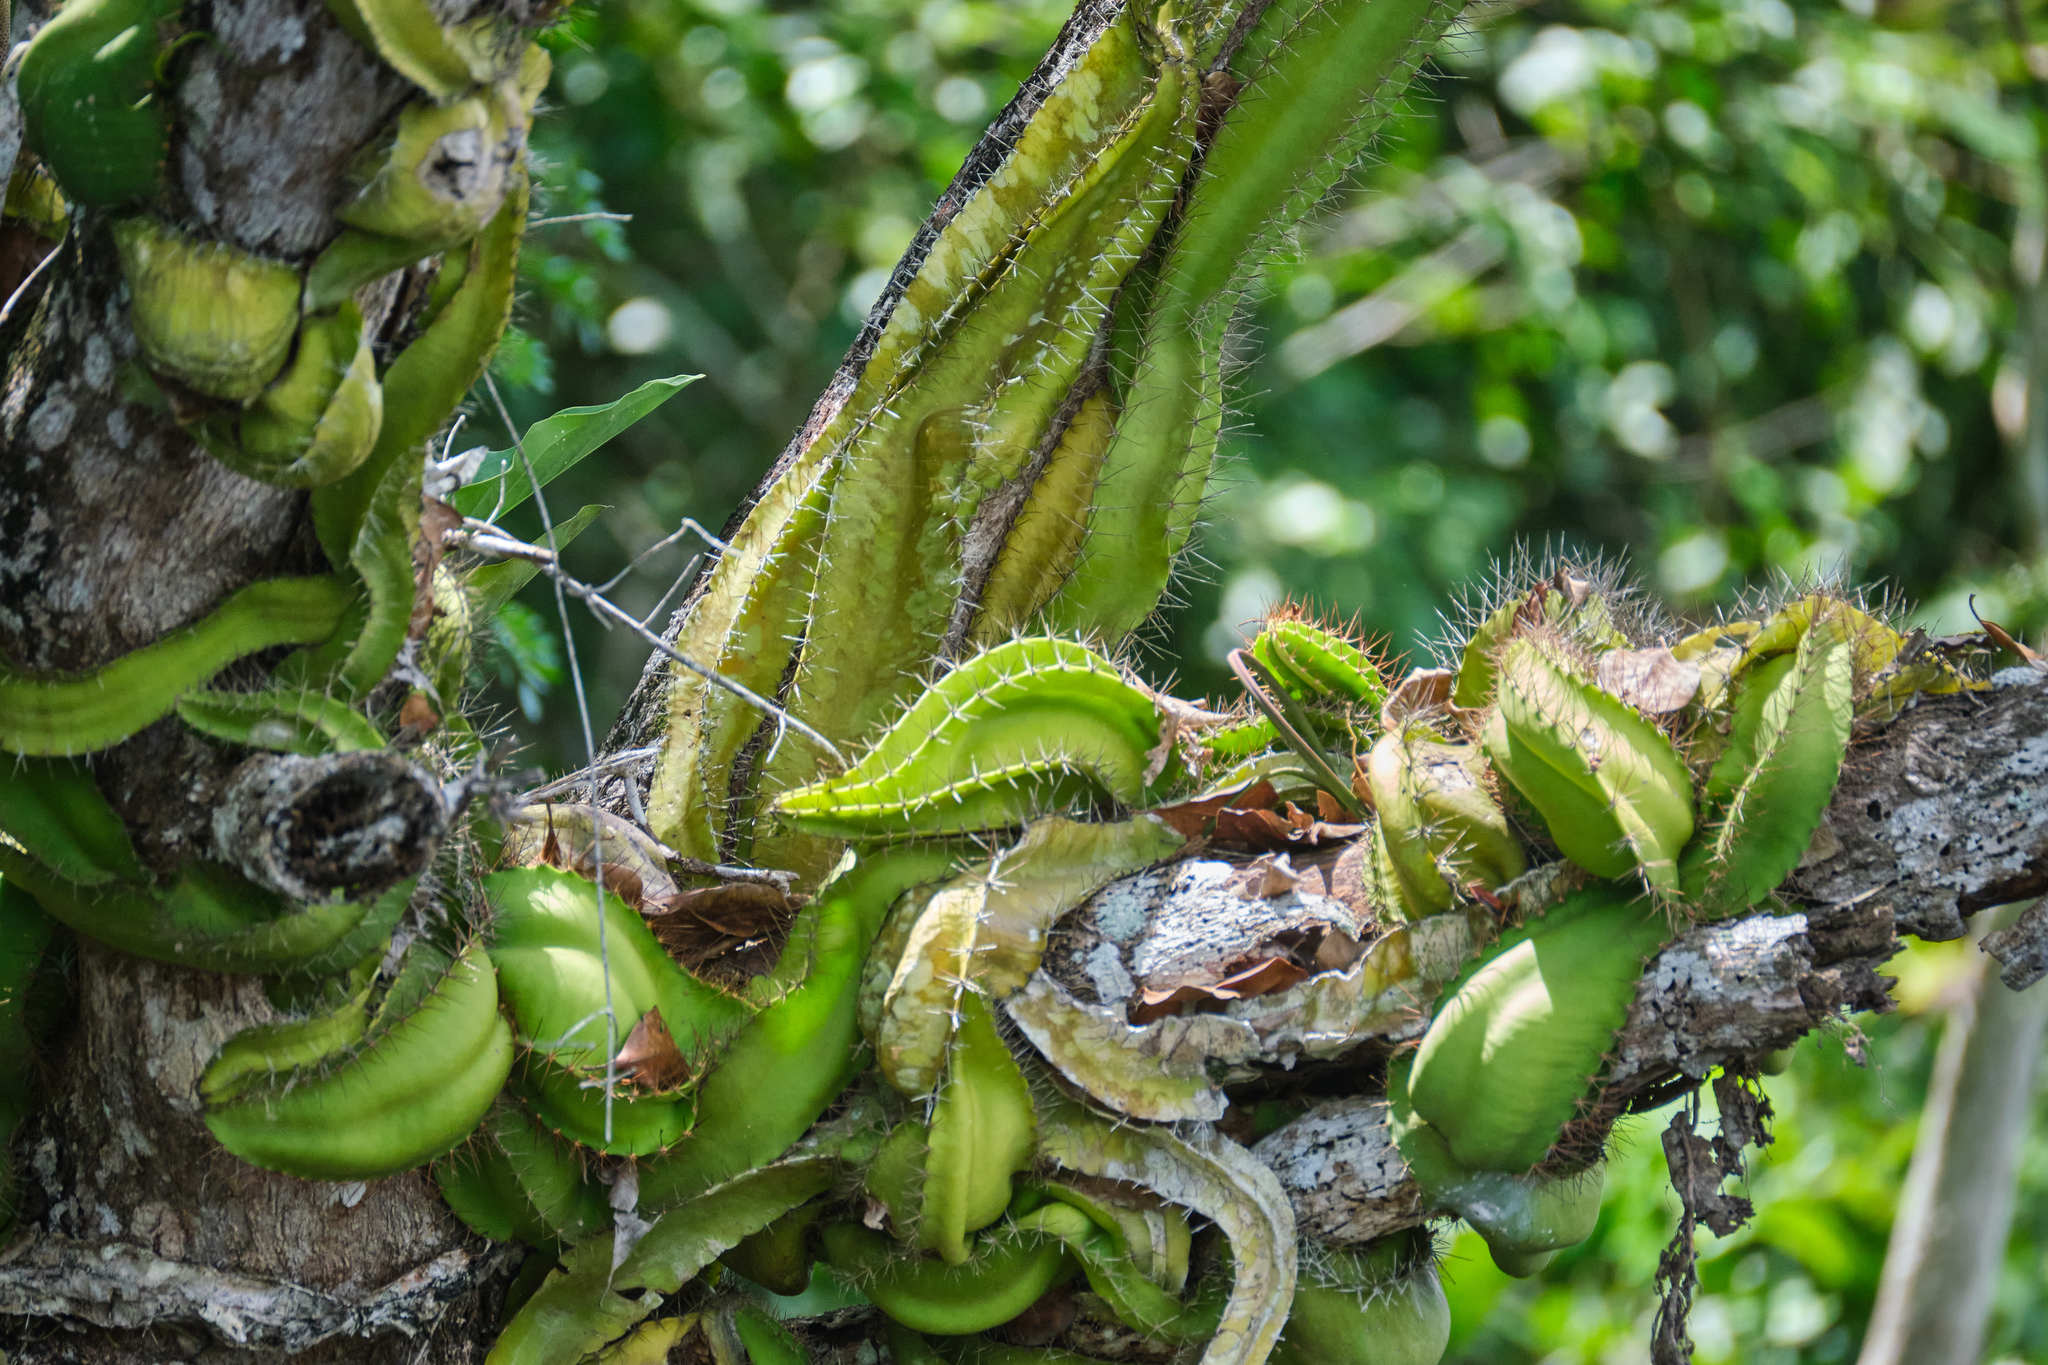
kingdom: Plantae
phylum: Tracheophyta
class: Magnoliopsida
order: Caryophyllales
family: Cactaceae
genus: Deamia
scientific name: Deamia testudo
